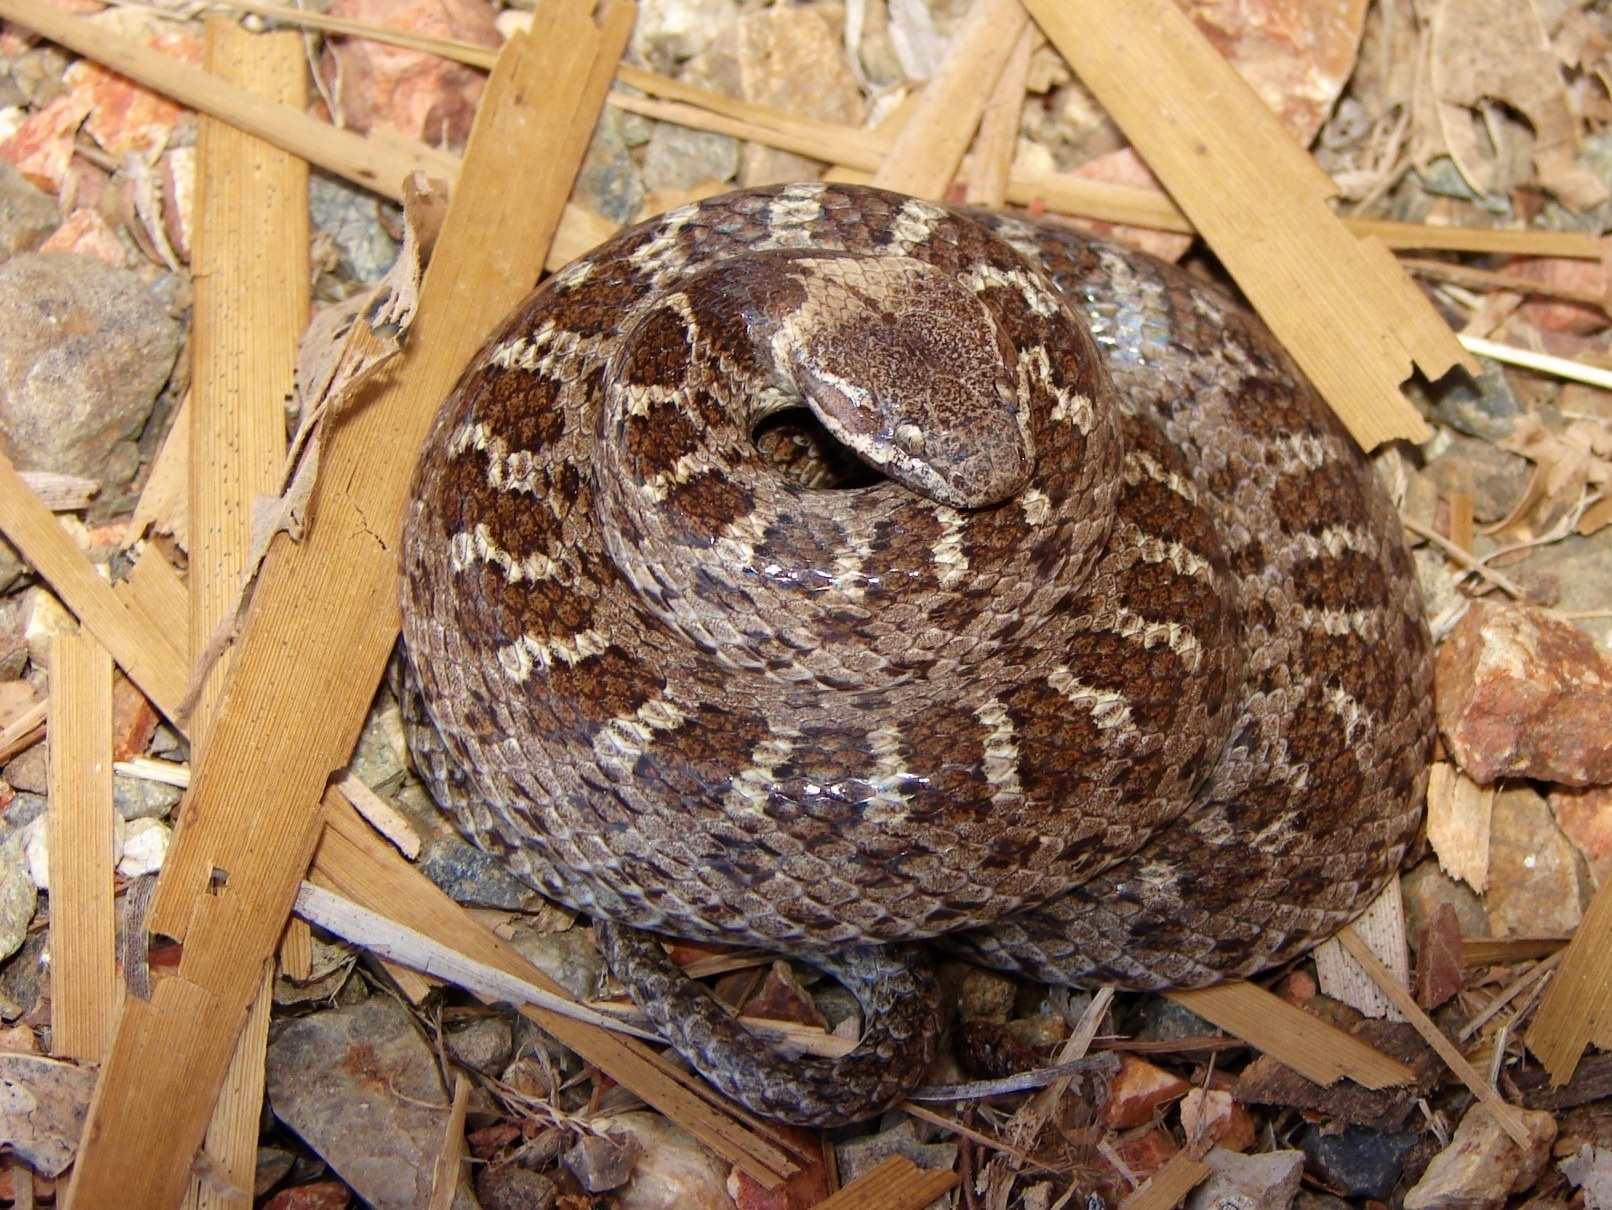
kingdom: Animalia
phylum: Chordata
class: Squamata
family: Colubridae
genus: Hypsiglena
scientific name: Hypsiglena torquata
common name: Night snake
